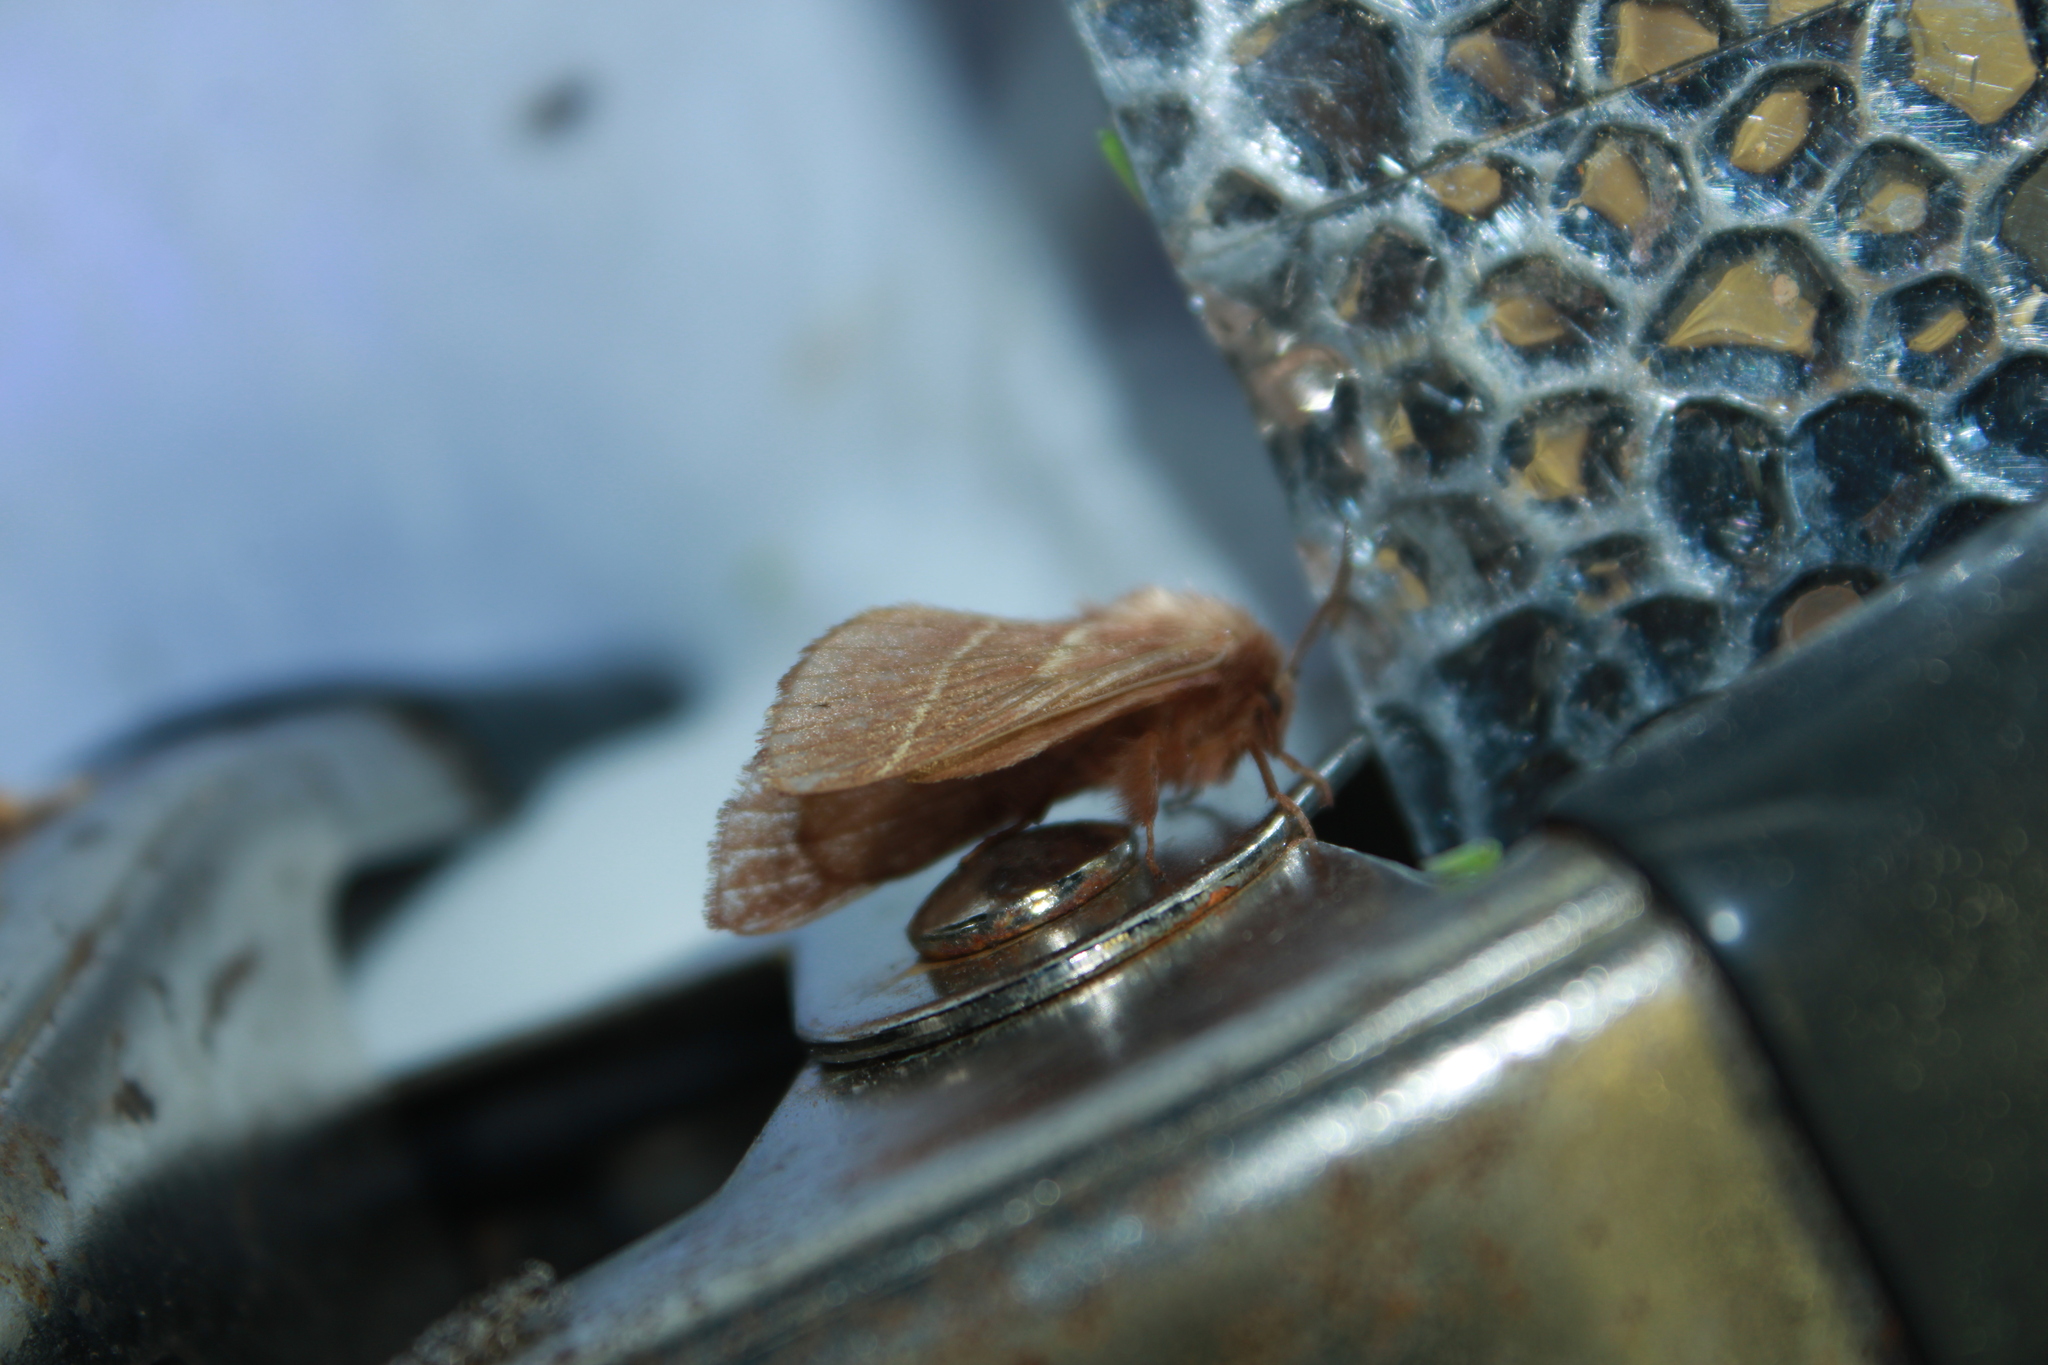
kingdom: Animalia
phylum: Arthropoda
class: Insecta
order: Lepidoptera
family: Lasiocampidae
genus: Malacosoma
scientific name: Malacosoma americana
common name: Eastern tent caterpillar moth
